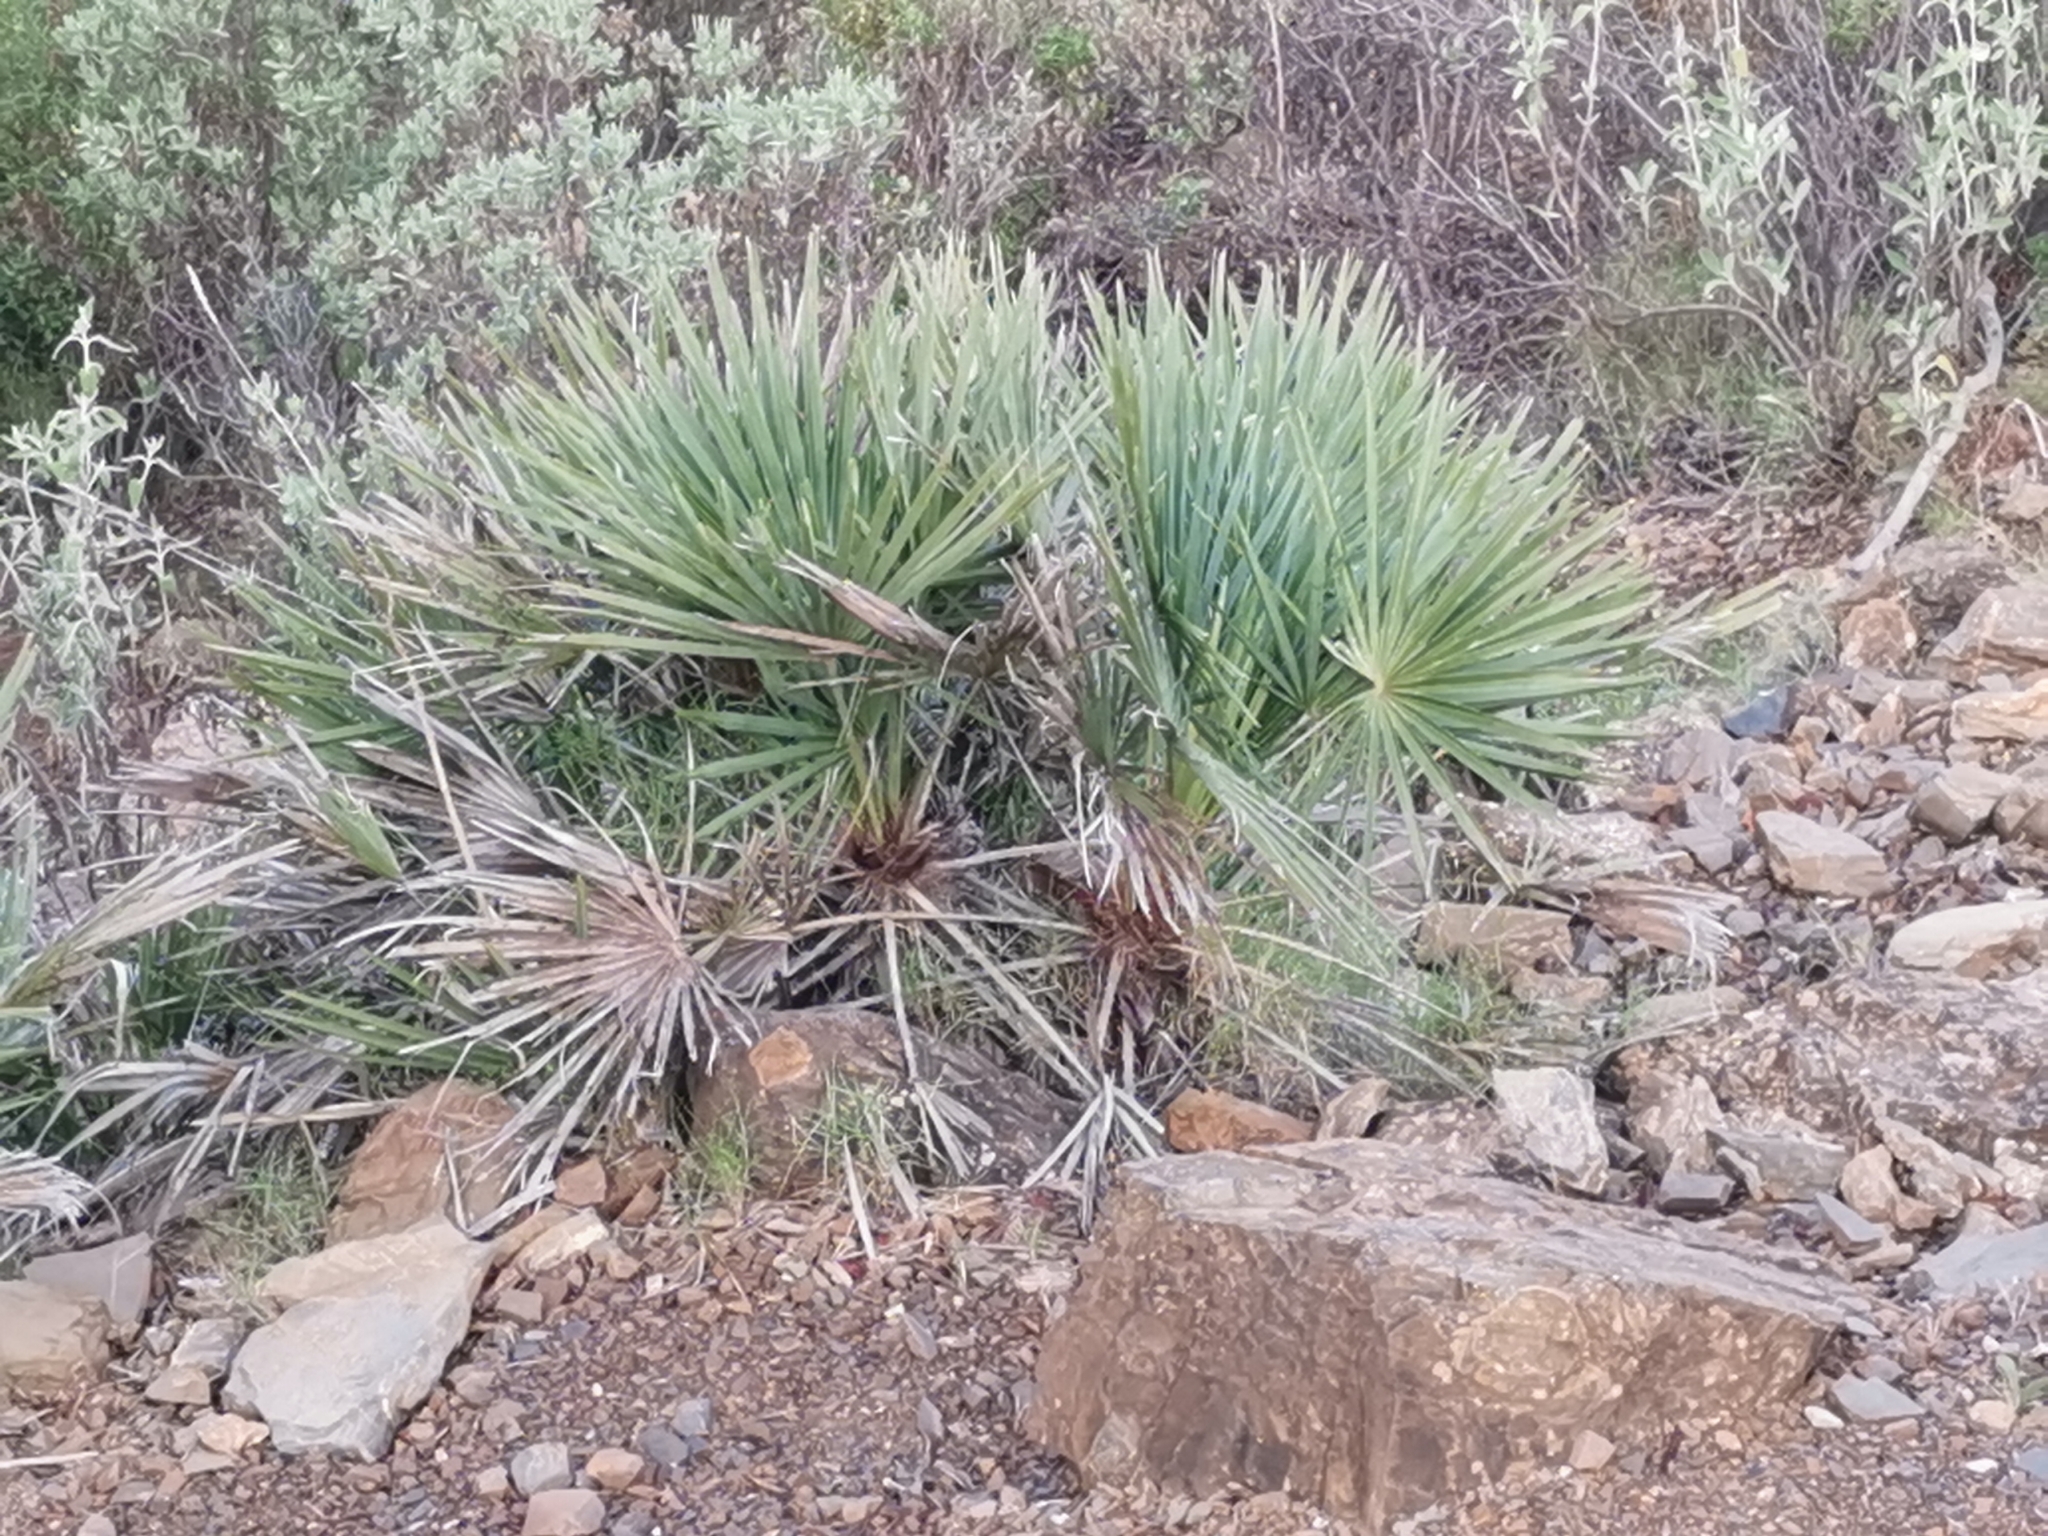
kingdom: Plantae
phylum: Tracheophyta
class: Liliopsida
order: Arecales
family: Arecaceae
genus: Chamaerops
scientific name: Chamaerops humilis
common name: Dwarf fan palm
